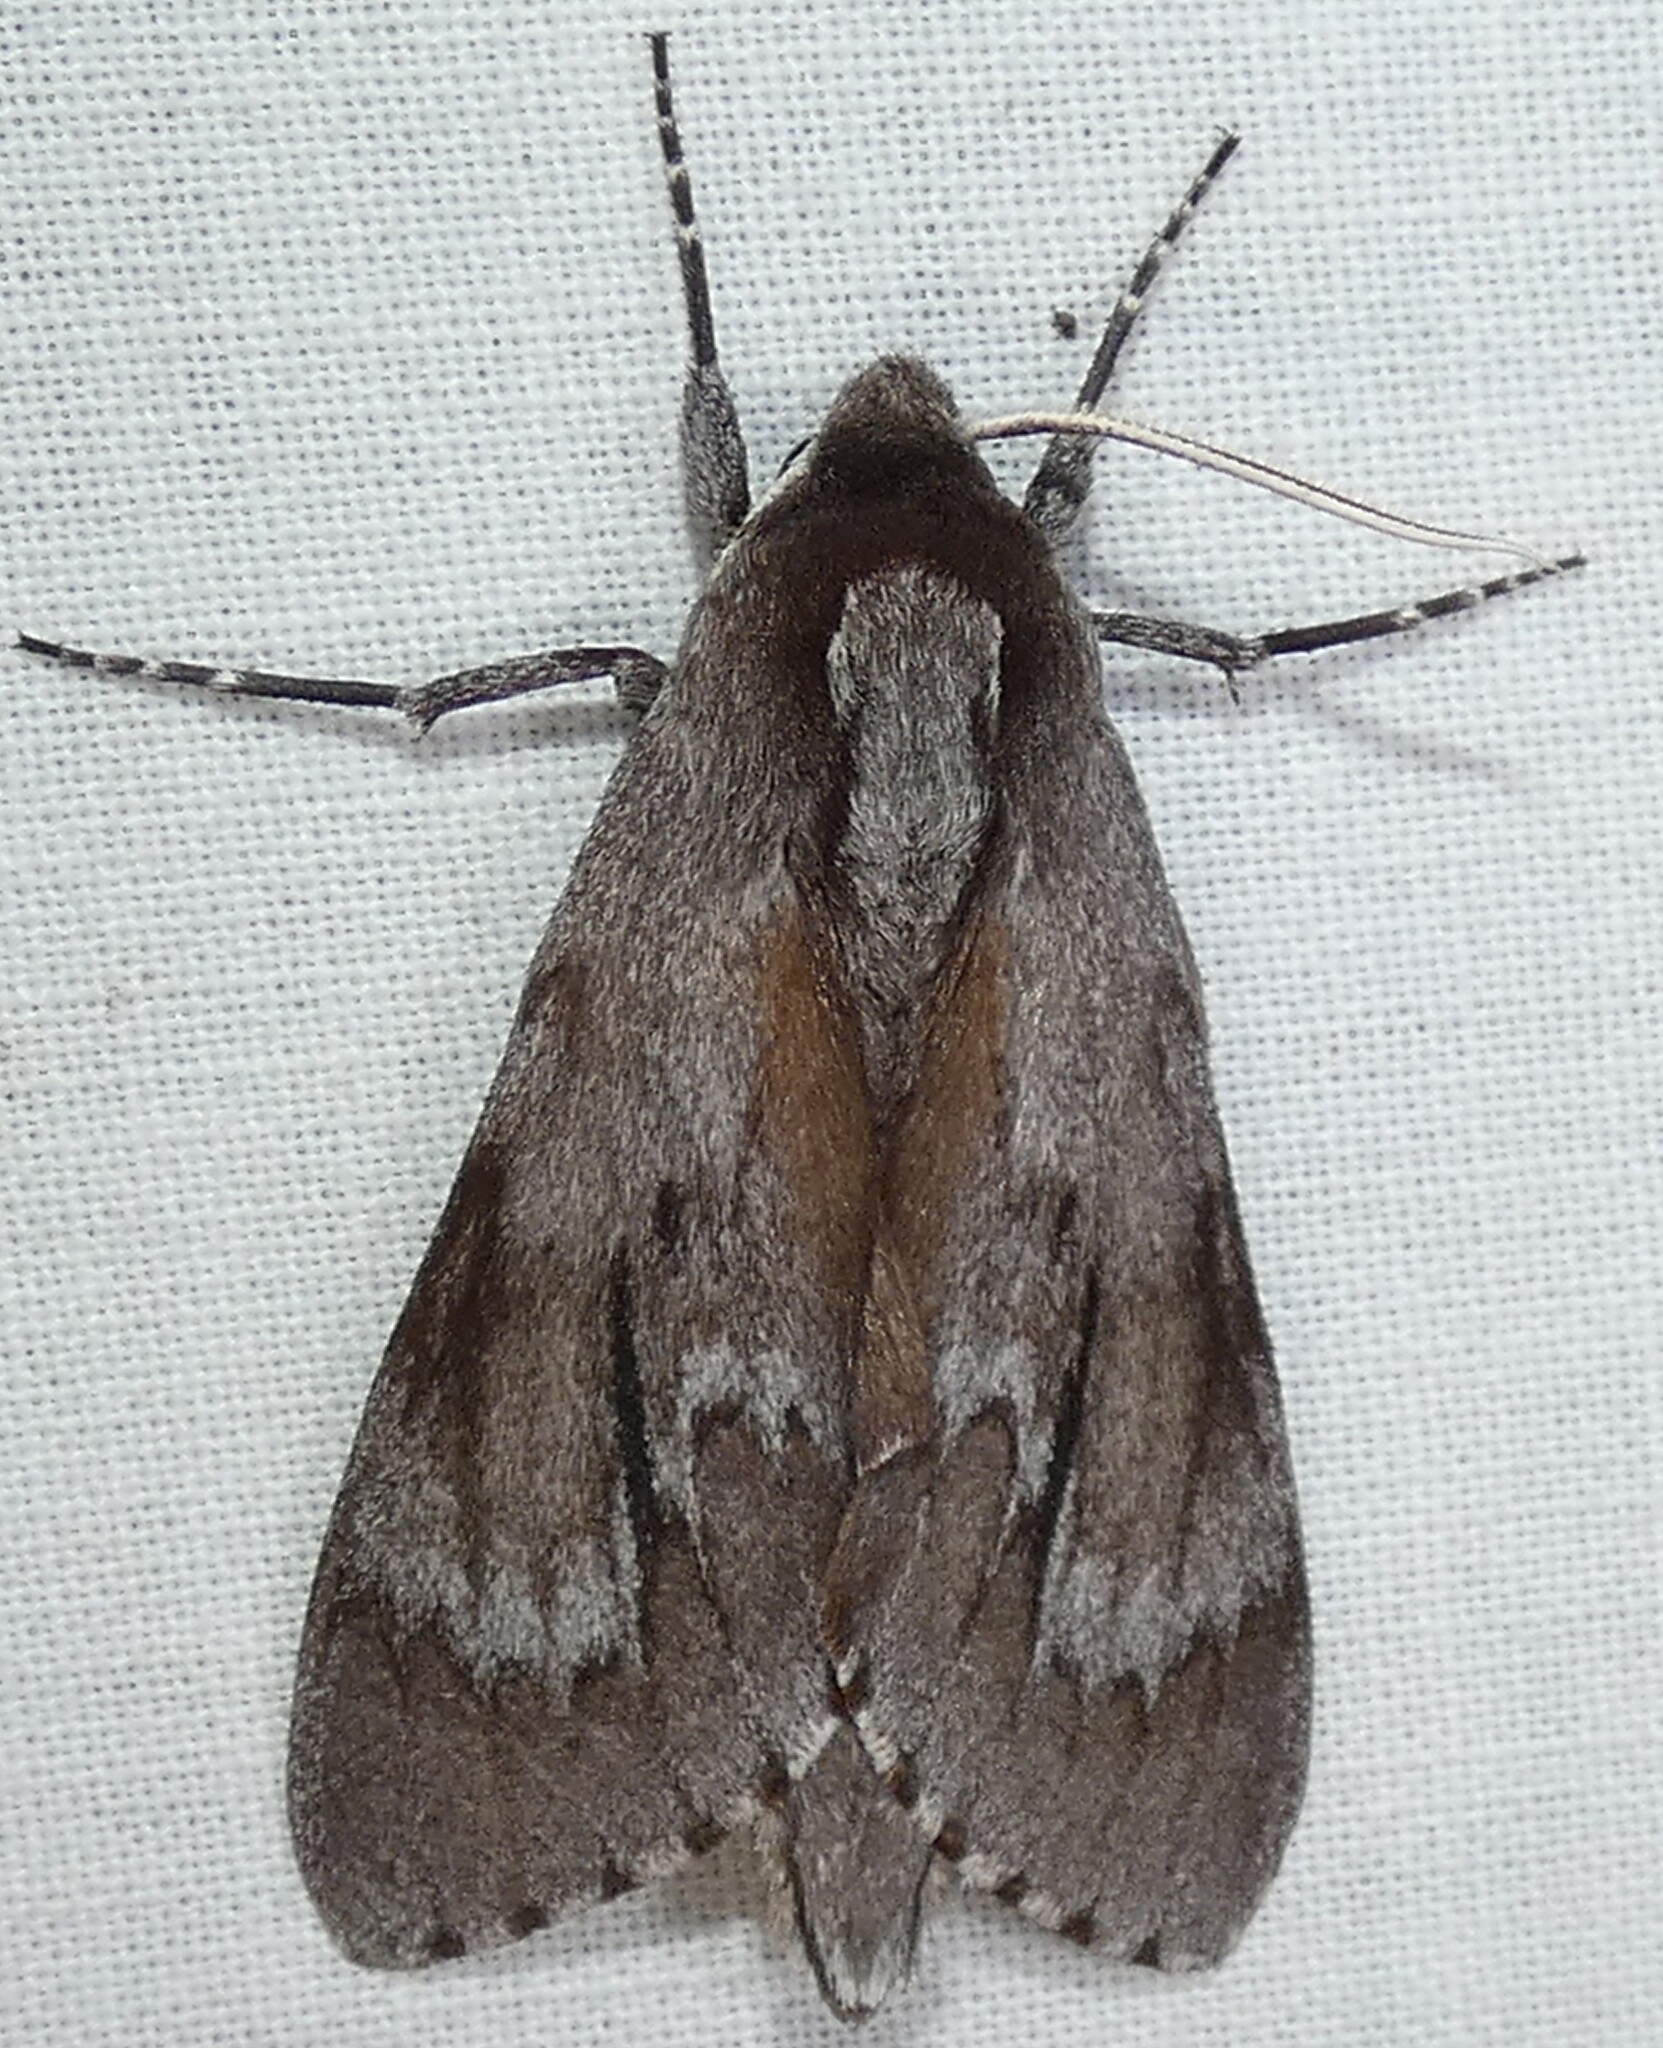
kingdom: Animalia
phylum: Arthropoda
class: Insecta
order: Lepidoptera
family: Sphingidae
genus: Lapara
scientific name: Lapara coniferarum
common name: Southern pine sphinx
